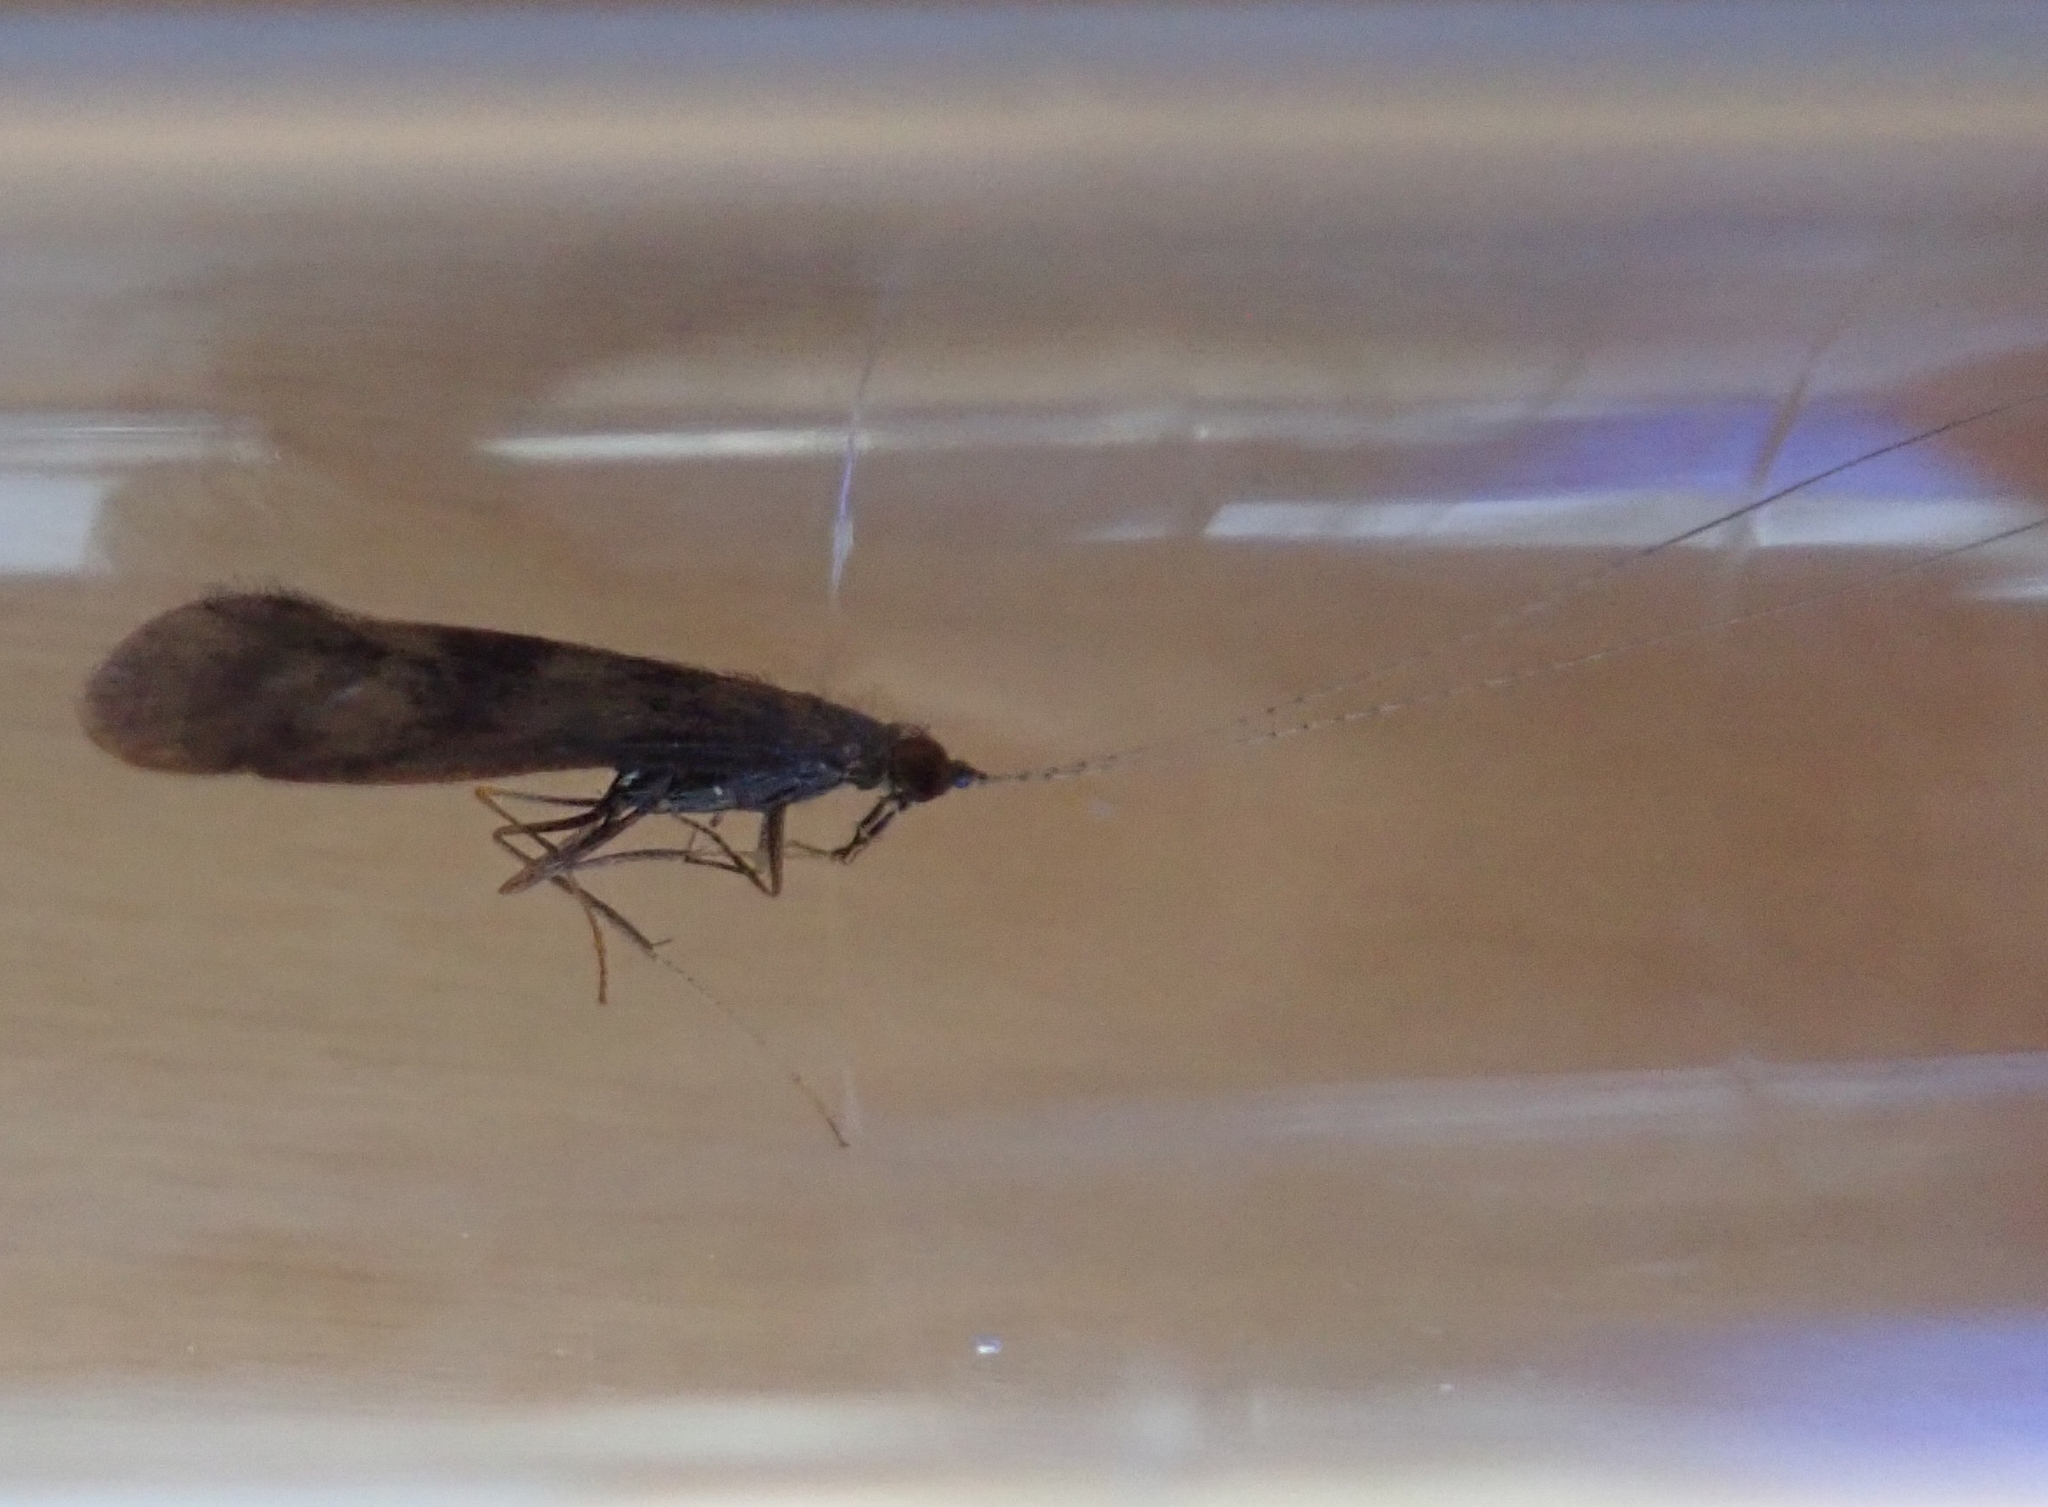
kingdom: Animalia
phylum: Arthropoda
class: Insecta
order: Trichoptera
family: Leptoceridae
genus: Mystacides
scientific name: Mystacides longicornis
